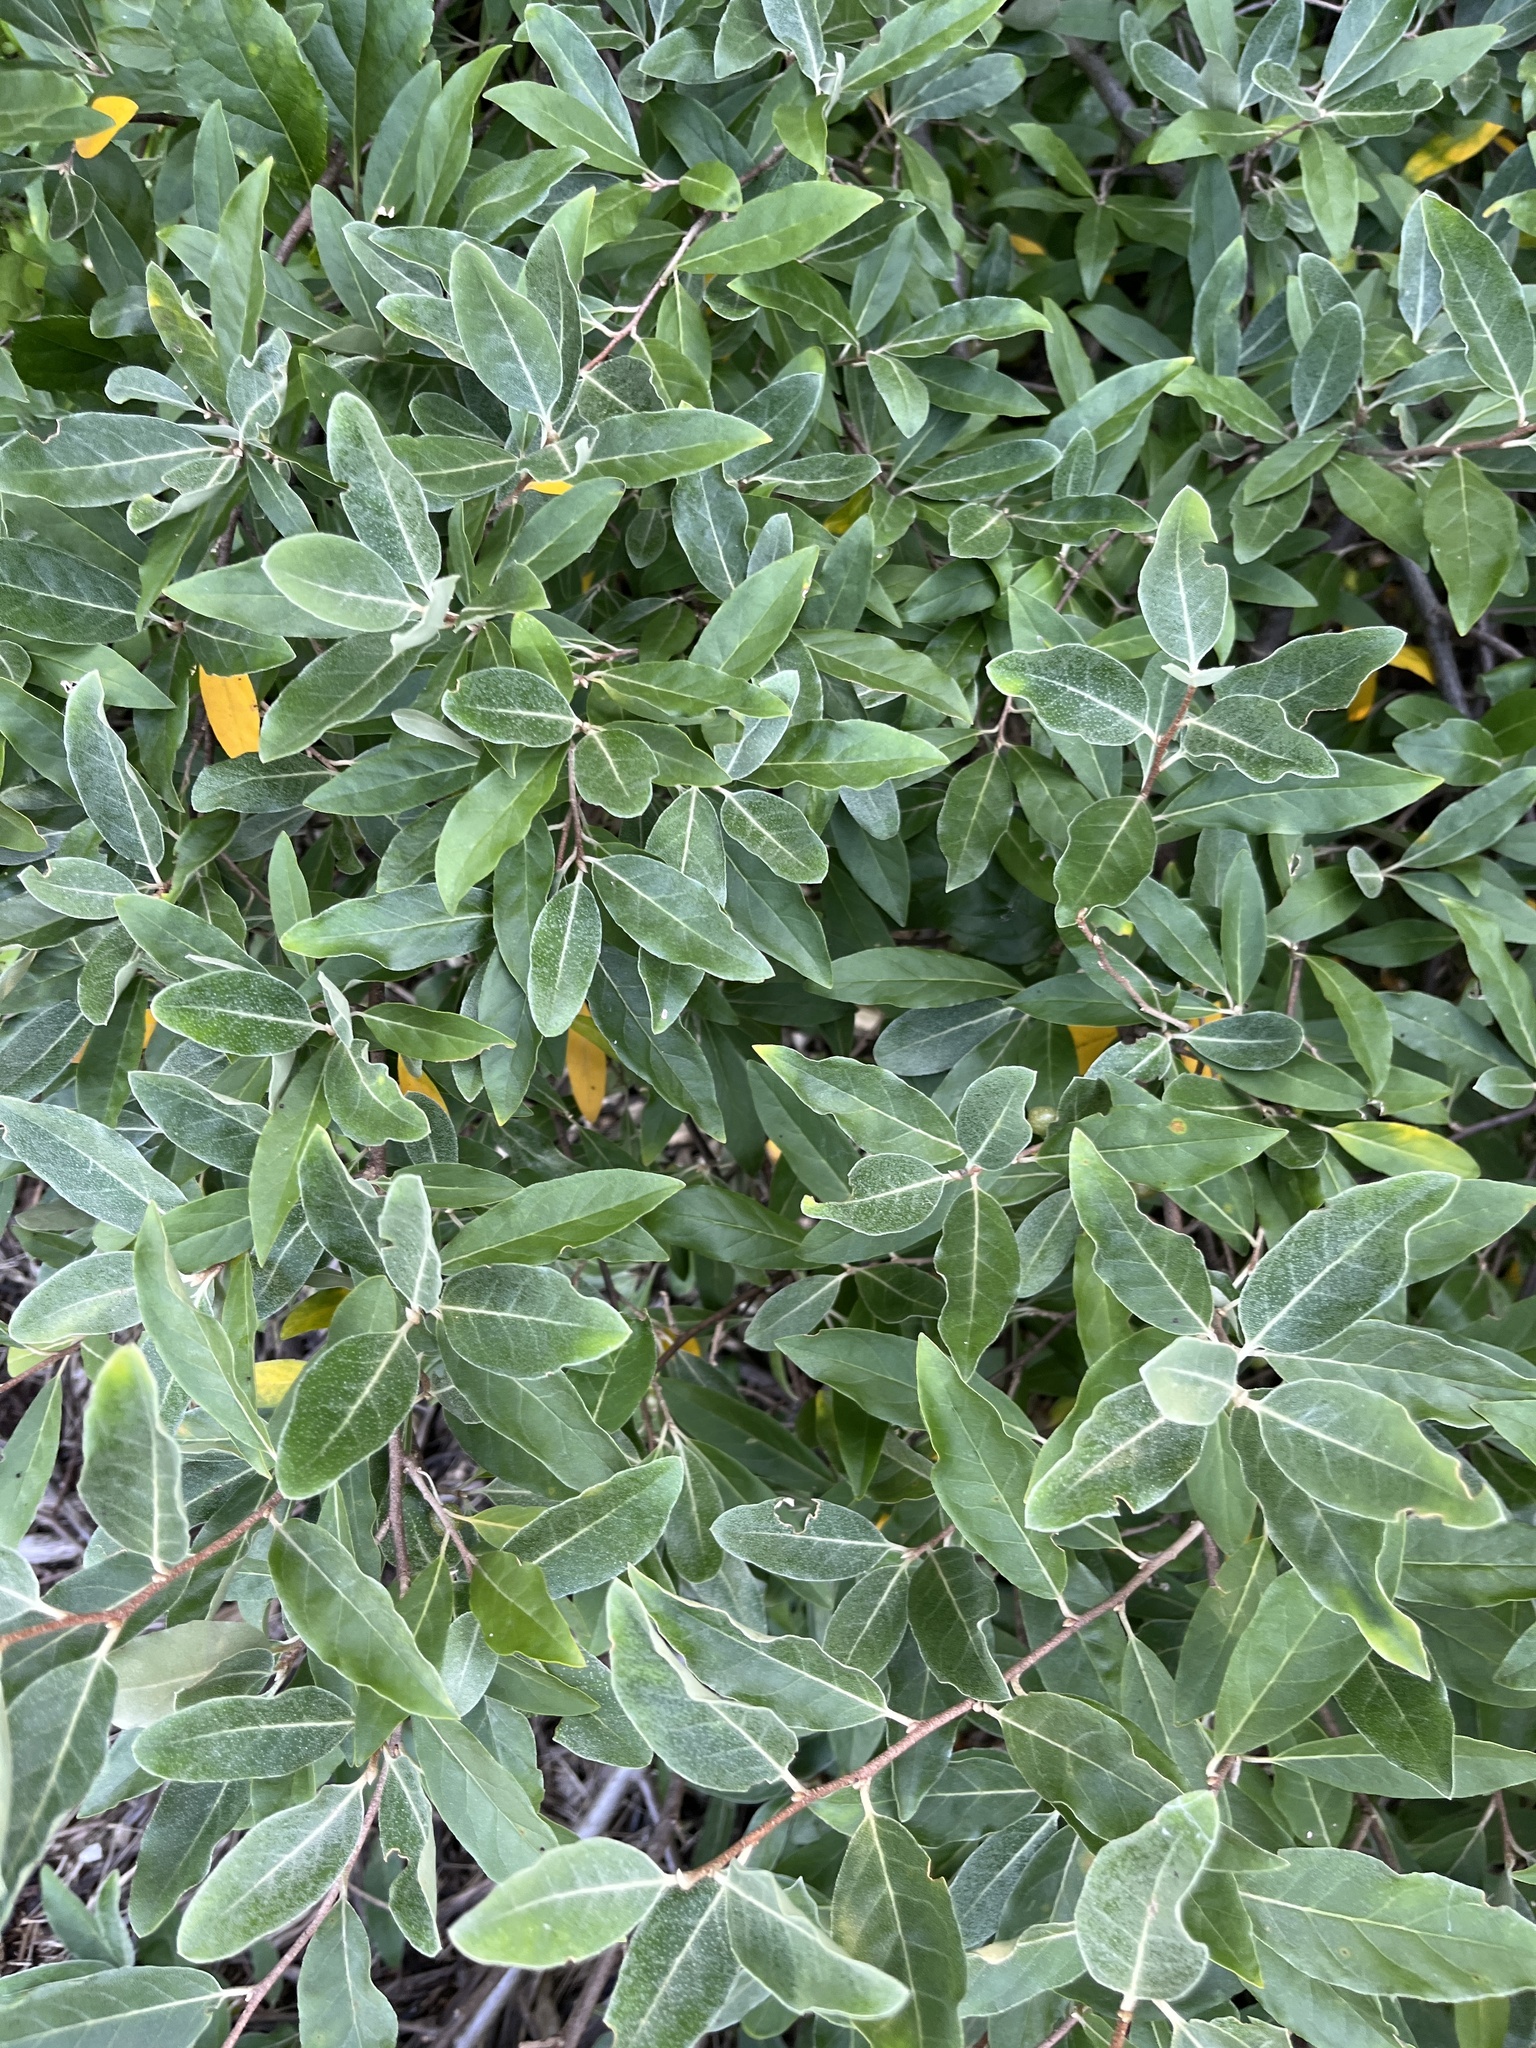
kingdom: Plantae
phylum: Tracheophyta
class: Magnoliopsida
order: Rosales
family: Elaeagnaceae
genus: Elaeagnus
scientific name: Elaeagnus umbellata
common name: Autumn olive
